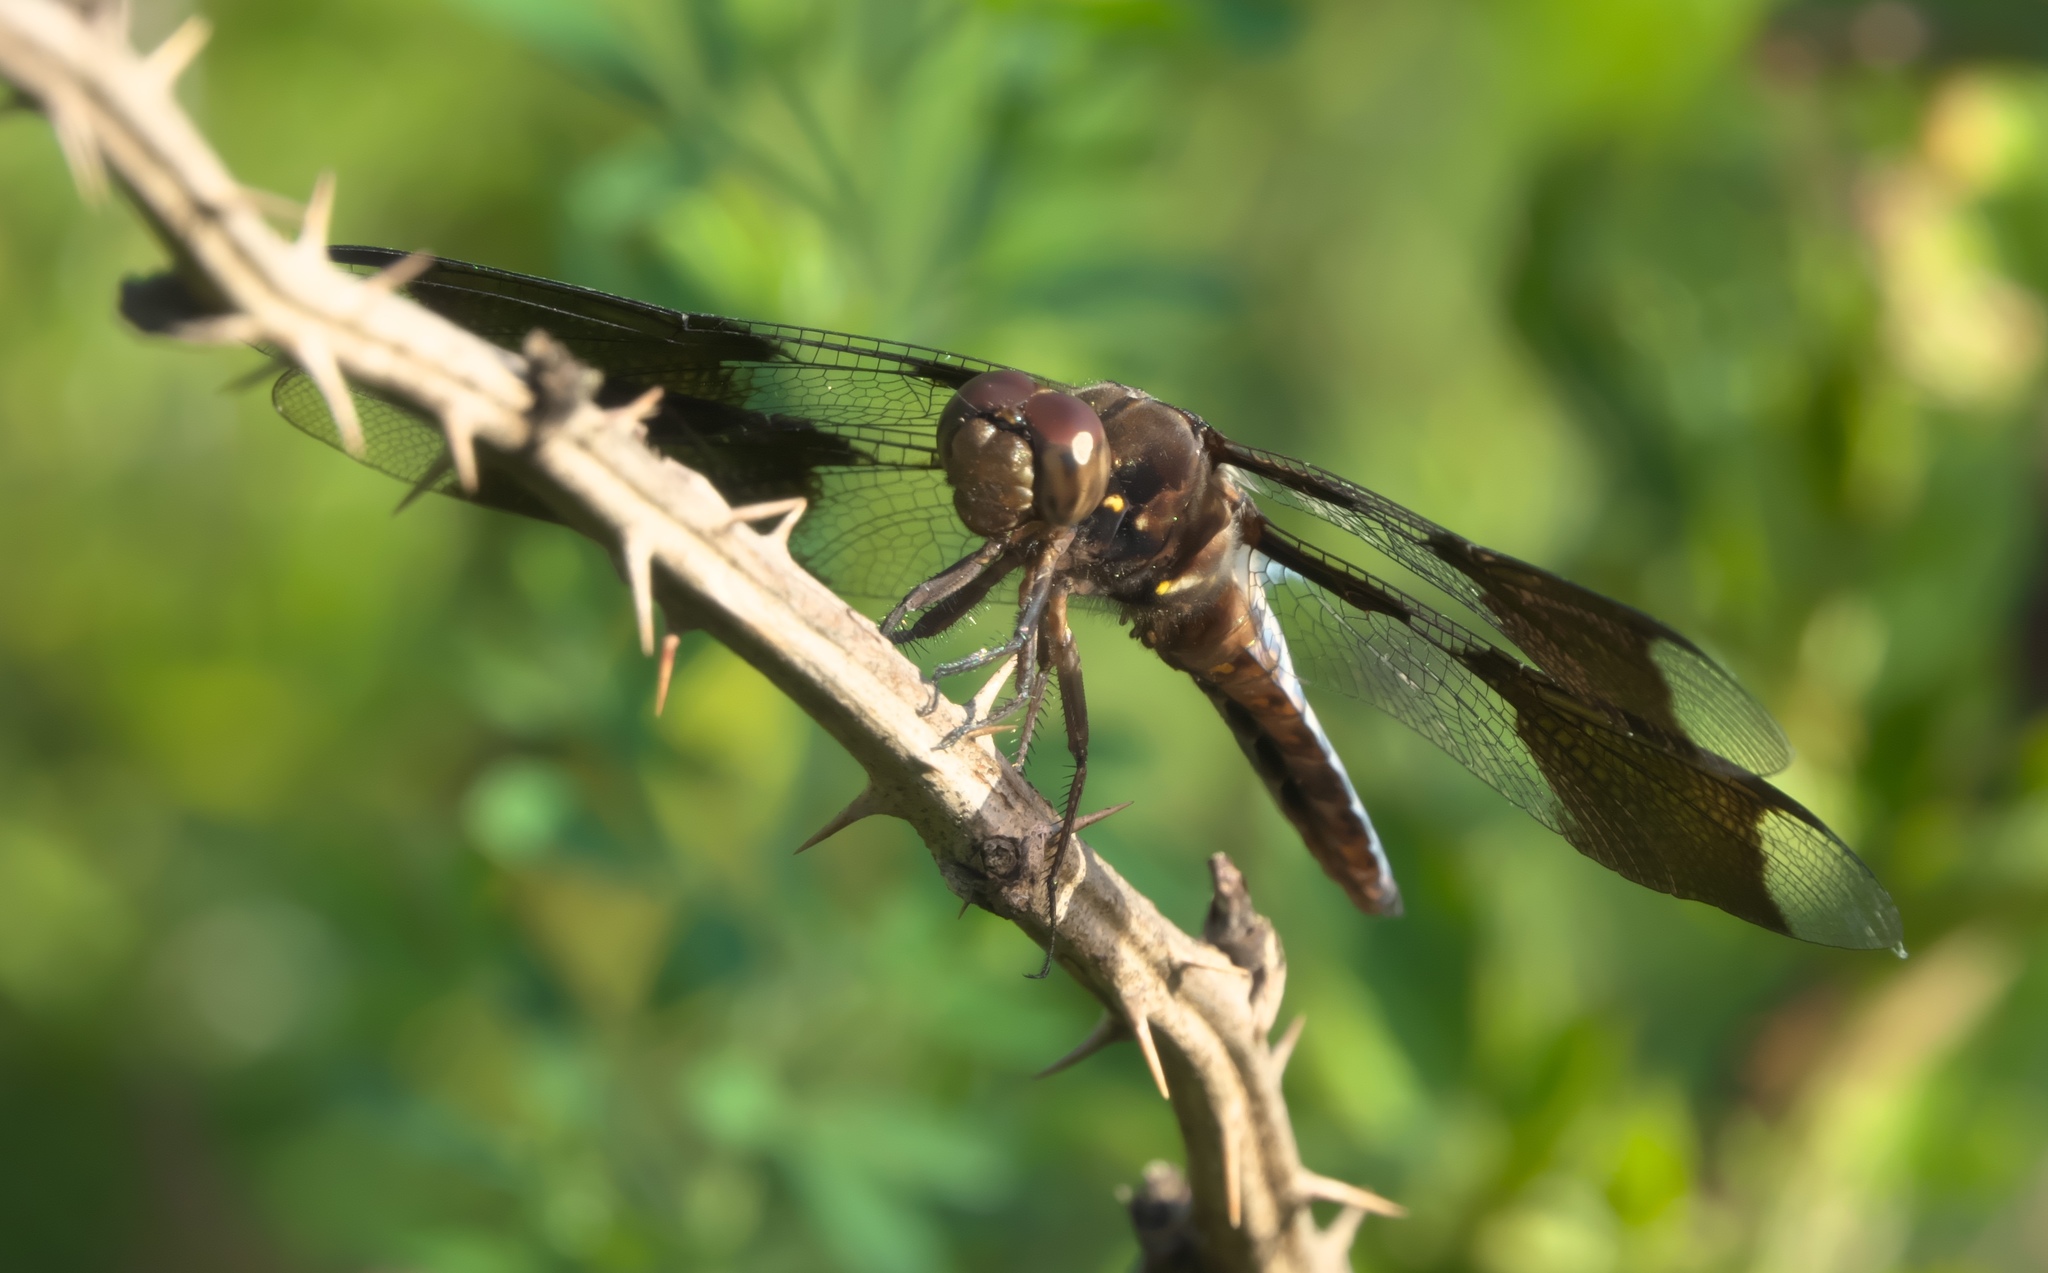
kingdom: Animalia
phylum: Arthropoda
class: Insecta
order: Odonata
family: Libellulidae
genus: Plathemis
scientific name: Plathemis lydia
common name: Common whitetail
